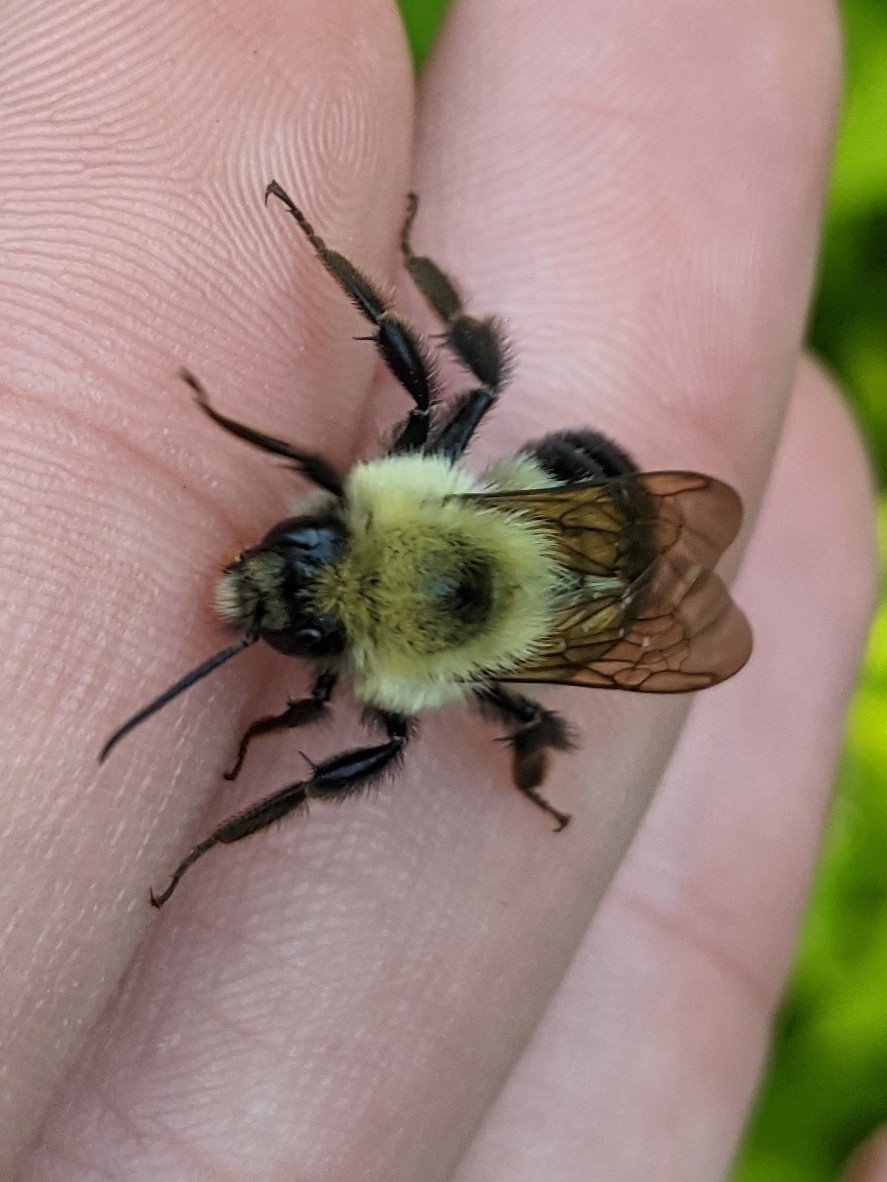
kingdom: Animalia
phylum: Arthropoda
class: Insecta
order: Hymenoptera
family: Apidae
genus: Bombus
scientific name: Bombus bimaculatus
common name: Two-spotted bumble bee
